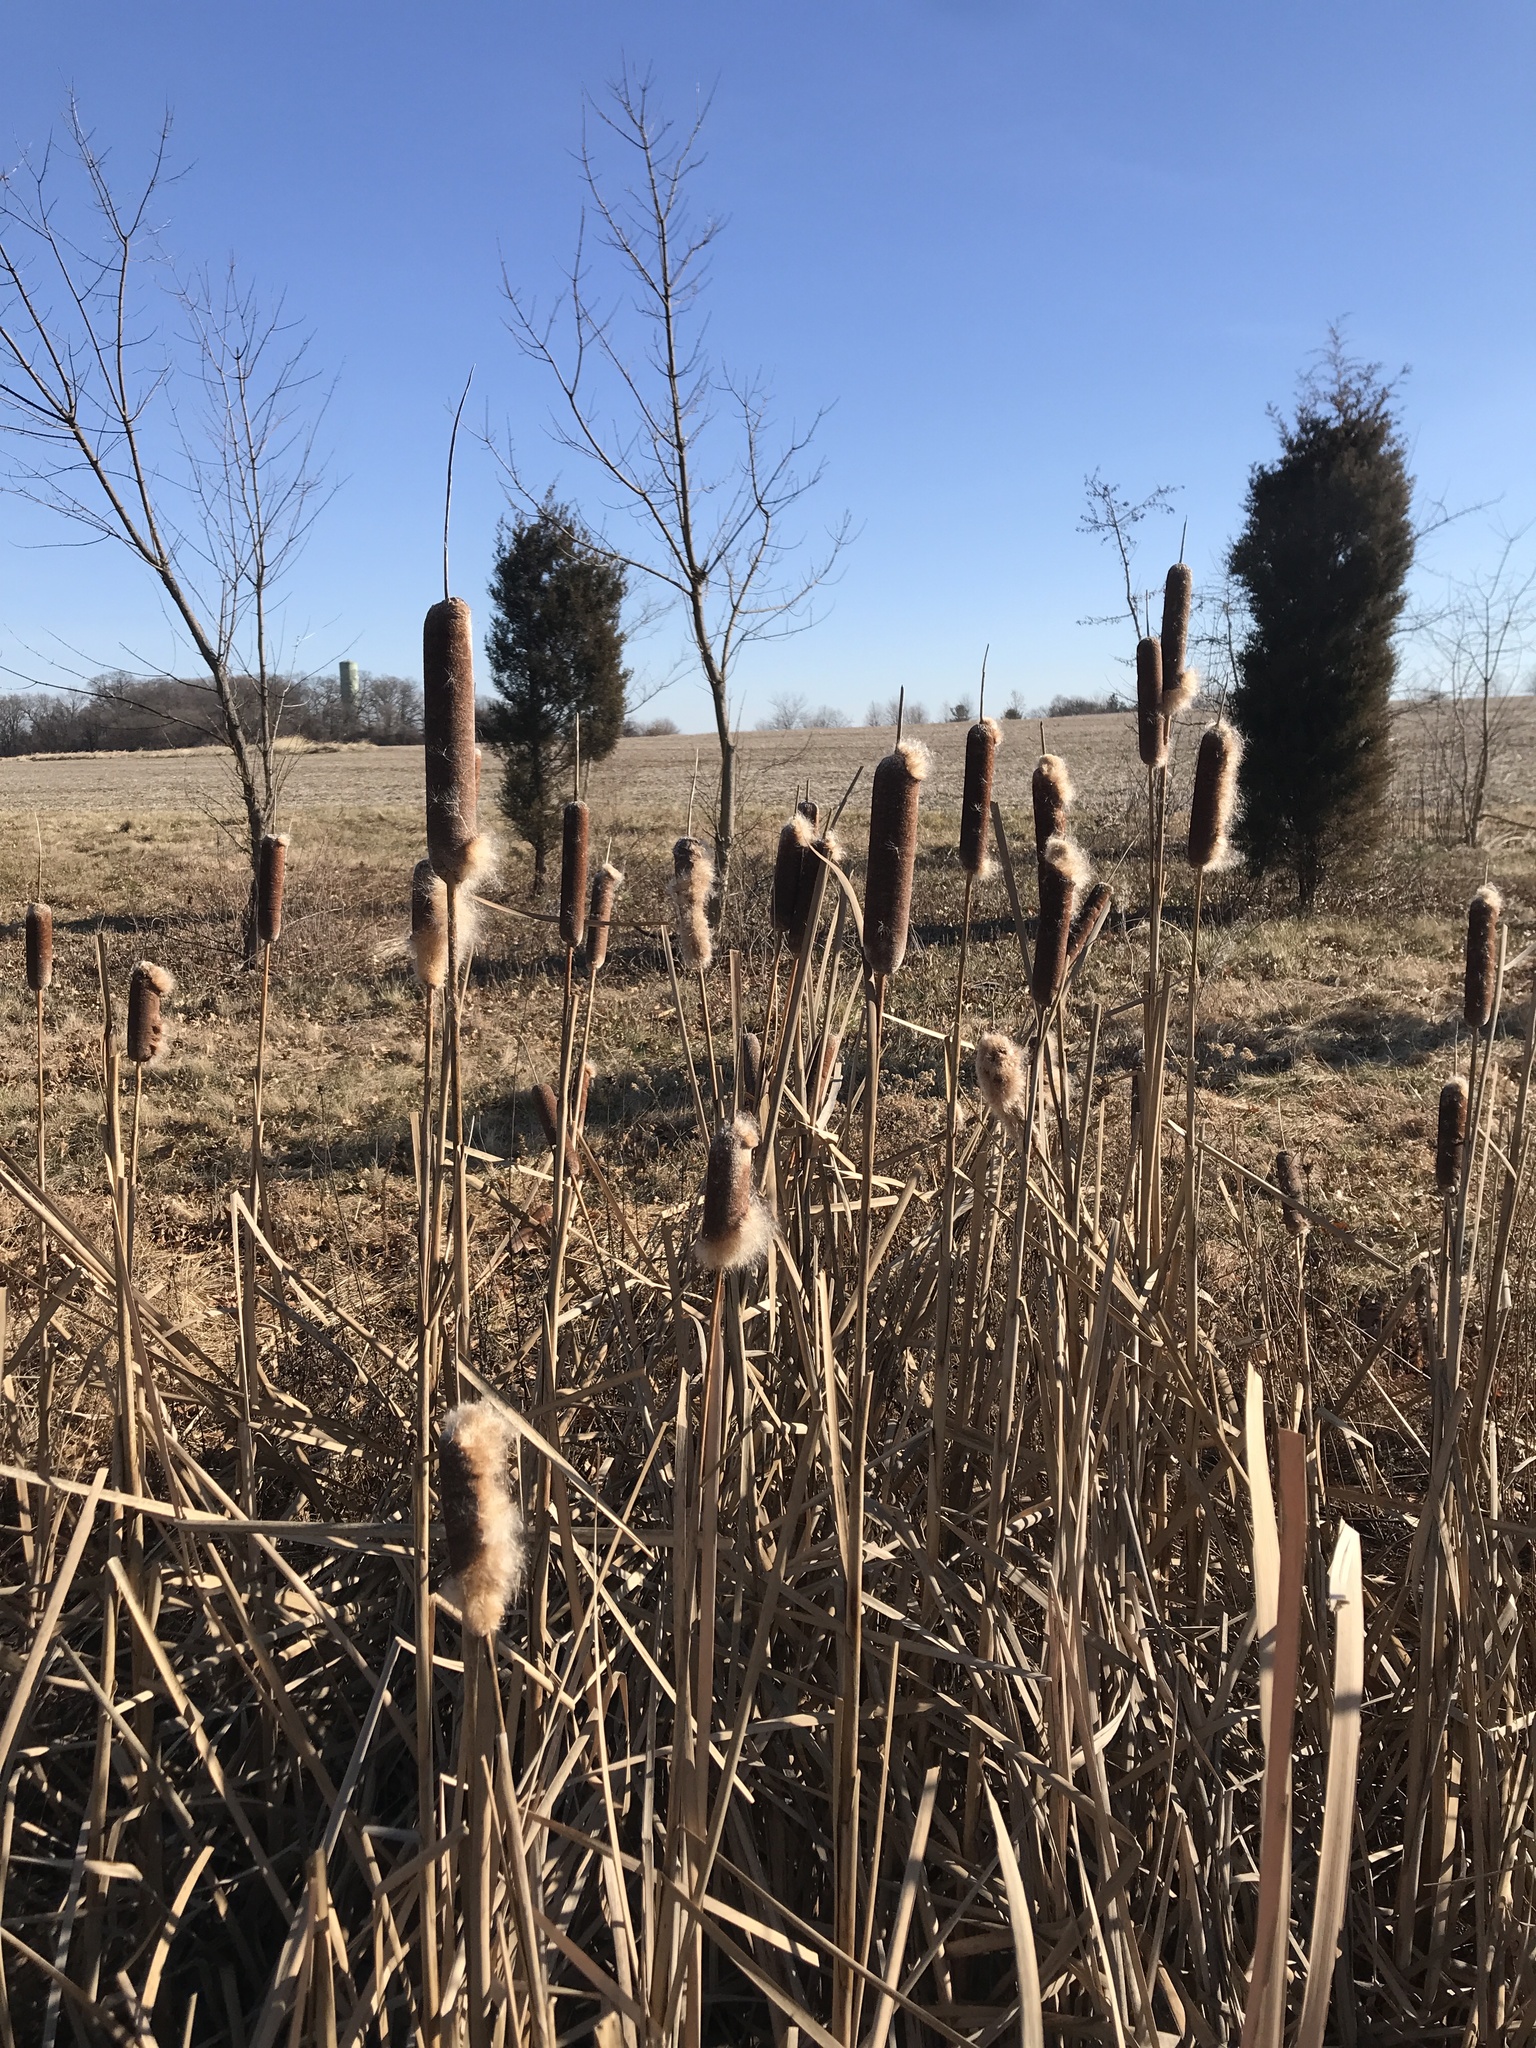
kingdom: Plantae
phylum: Tracheophyta
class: Liliopsida
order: Poales
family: Typhaceae
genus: Typha
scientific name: Typha
